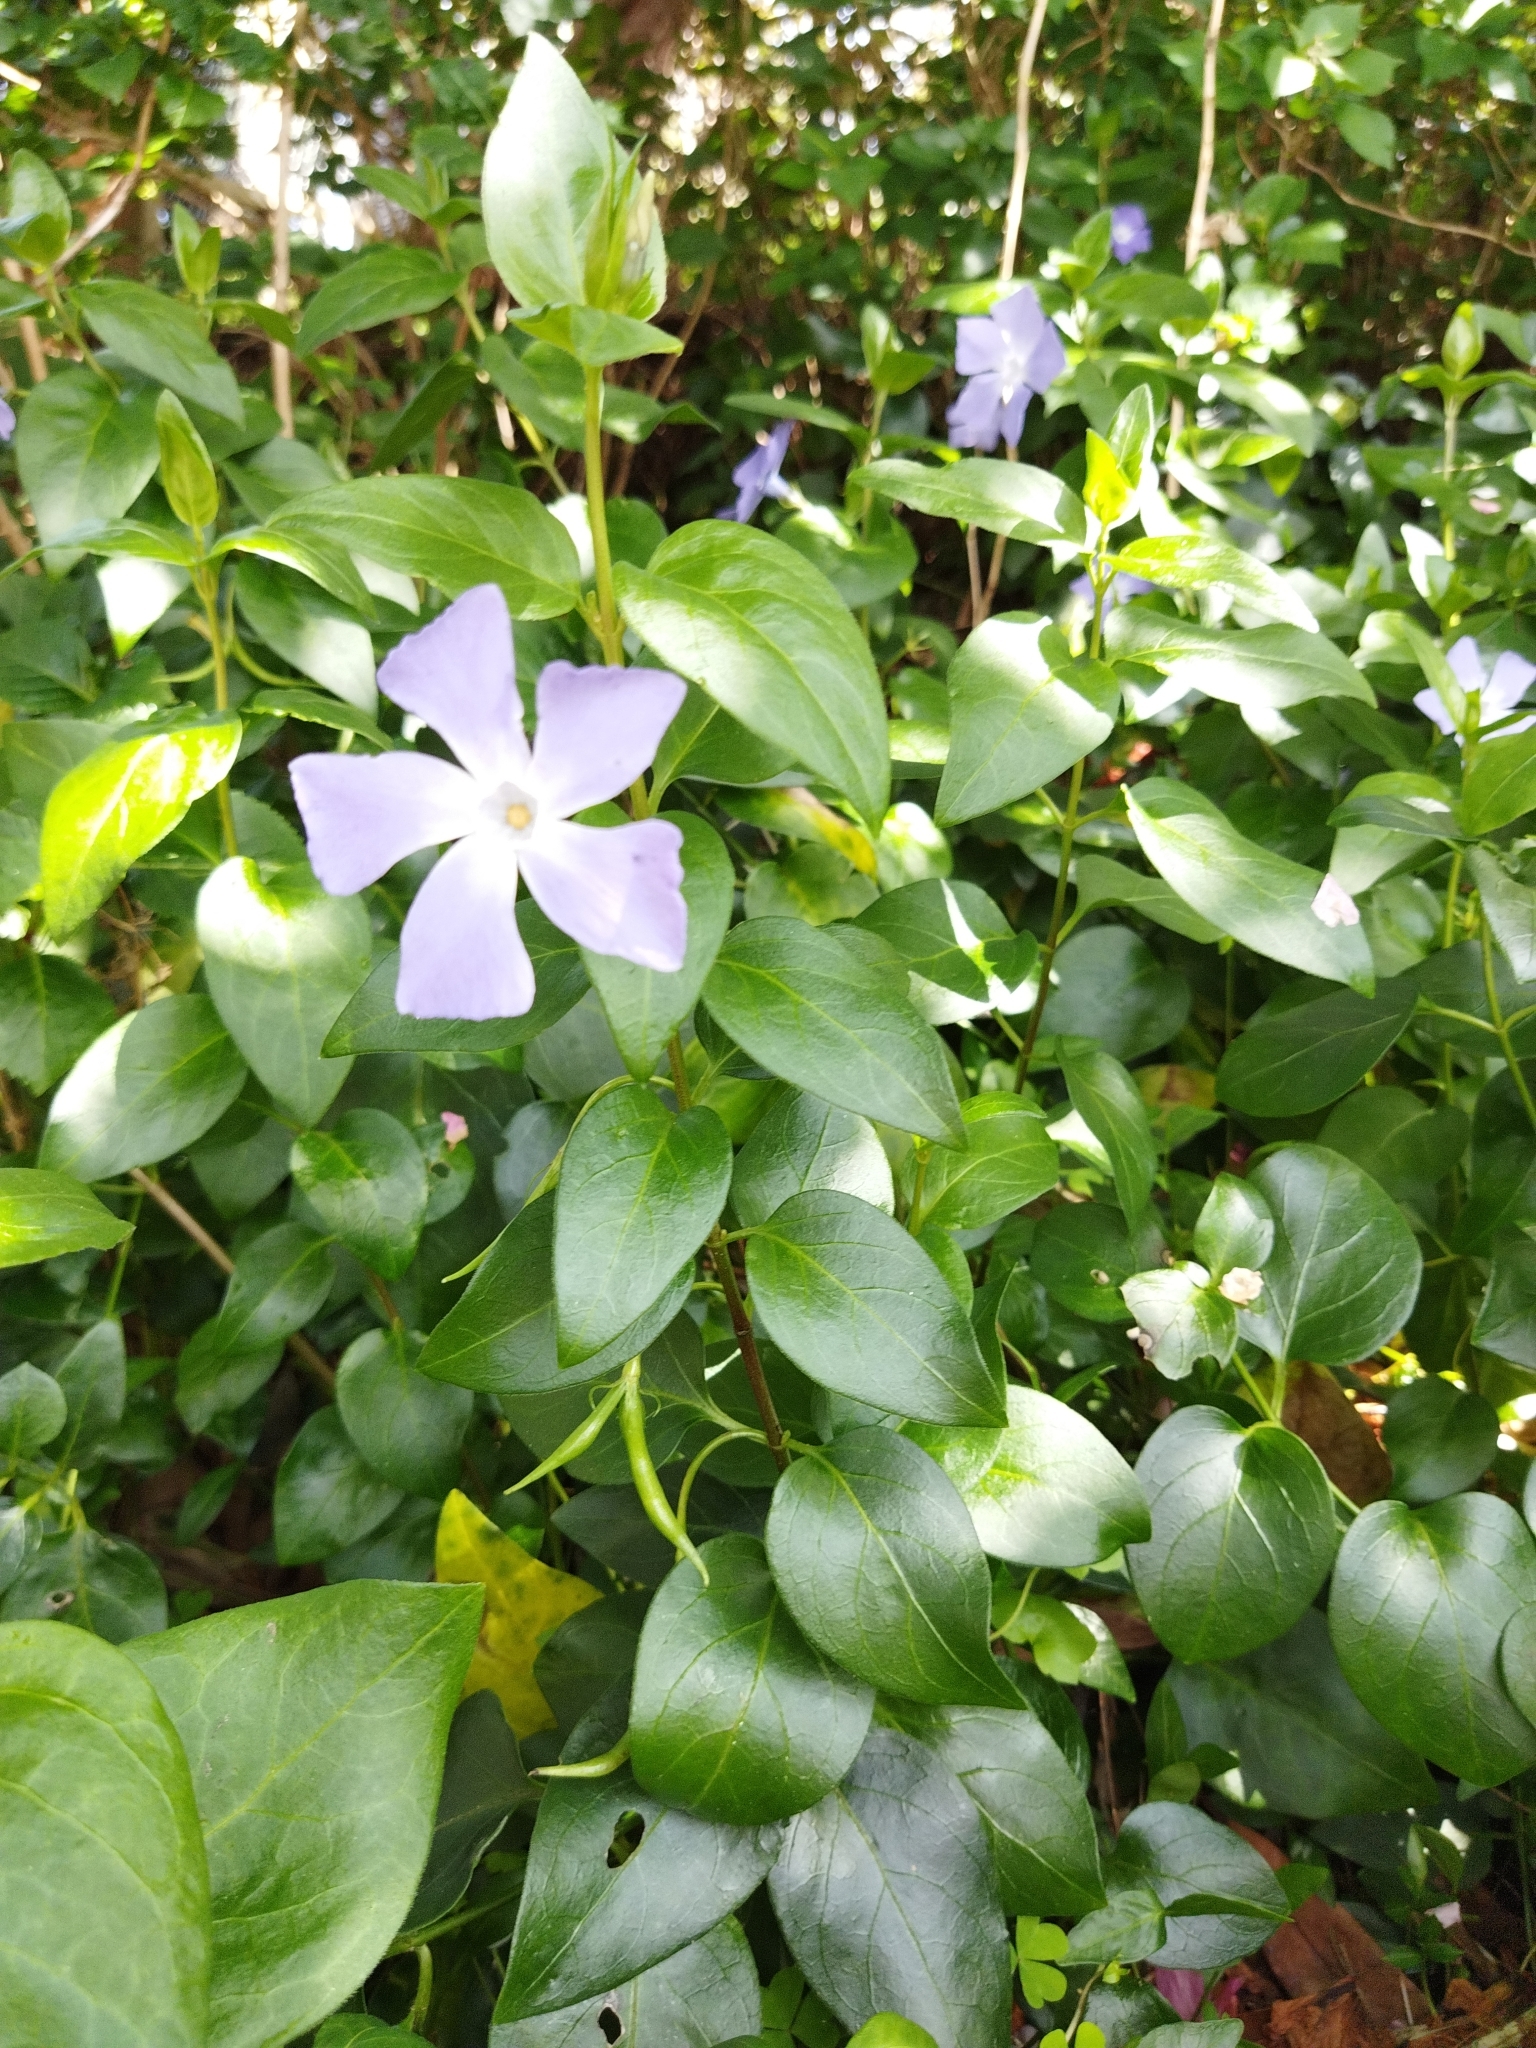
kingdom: Plantae
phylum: Tracheophyta
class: Magnoliopsida
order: Gentianales
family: Apocynaceae
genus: Vinca
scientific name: Vinca major
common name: Greater periwinkle
